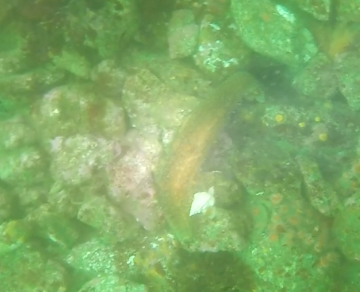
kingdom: Animalia
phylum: Echinodermata
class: Holothuroidea
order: Synallactida
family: Stichopodidae
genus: Apostichopus
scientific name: Apostichopus parvimensis
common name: Warty sea cucumber
